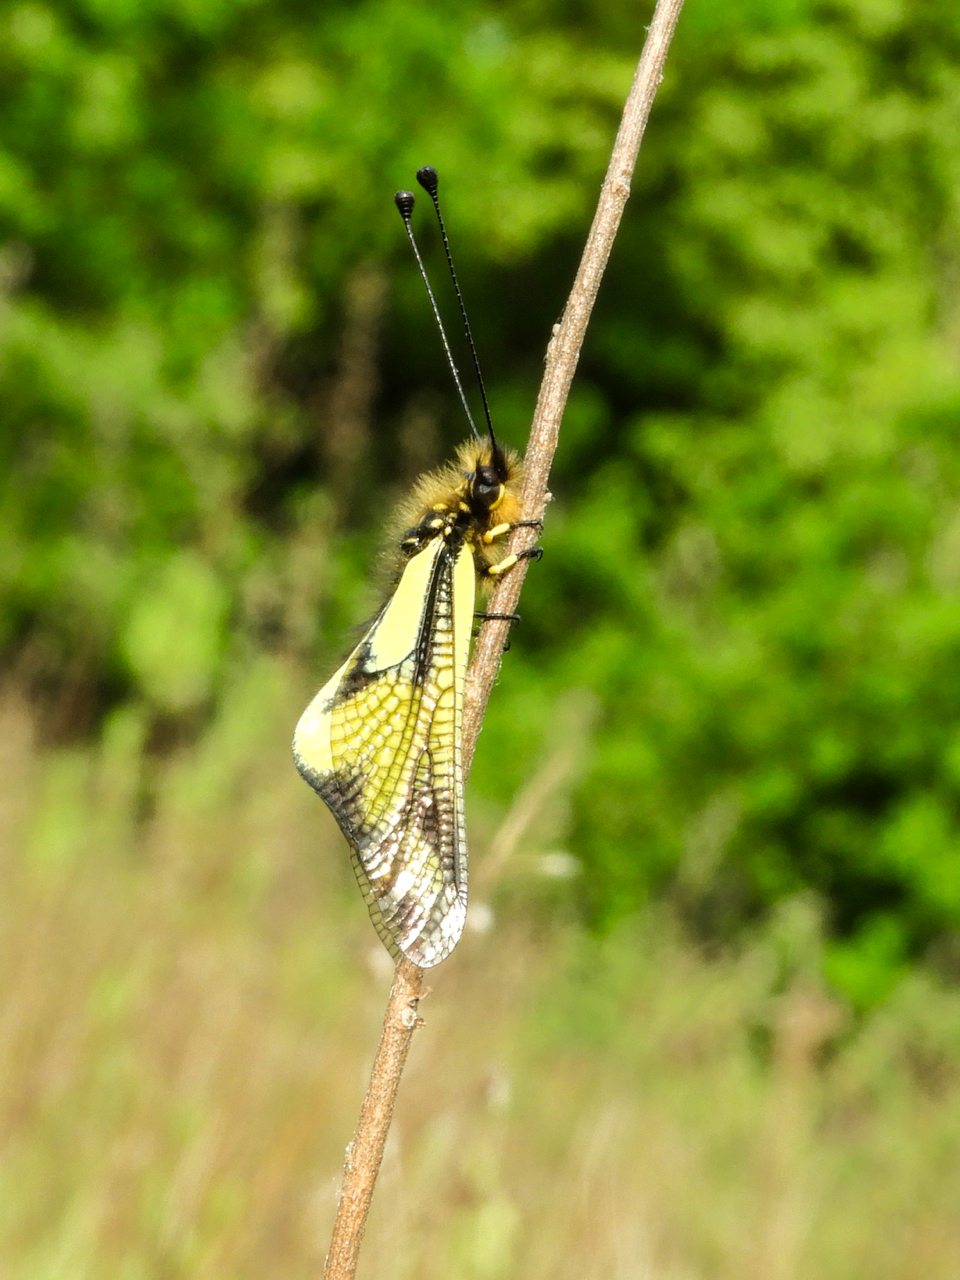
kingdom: Animalia
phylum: Arthropoda
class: Insecta
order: Neuroptera
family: Ascalaphidae
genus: Libelloides
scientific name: Libelloides coccajus
